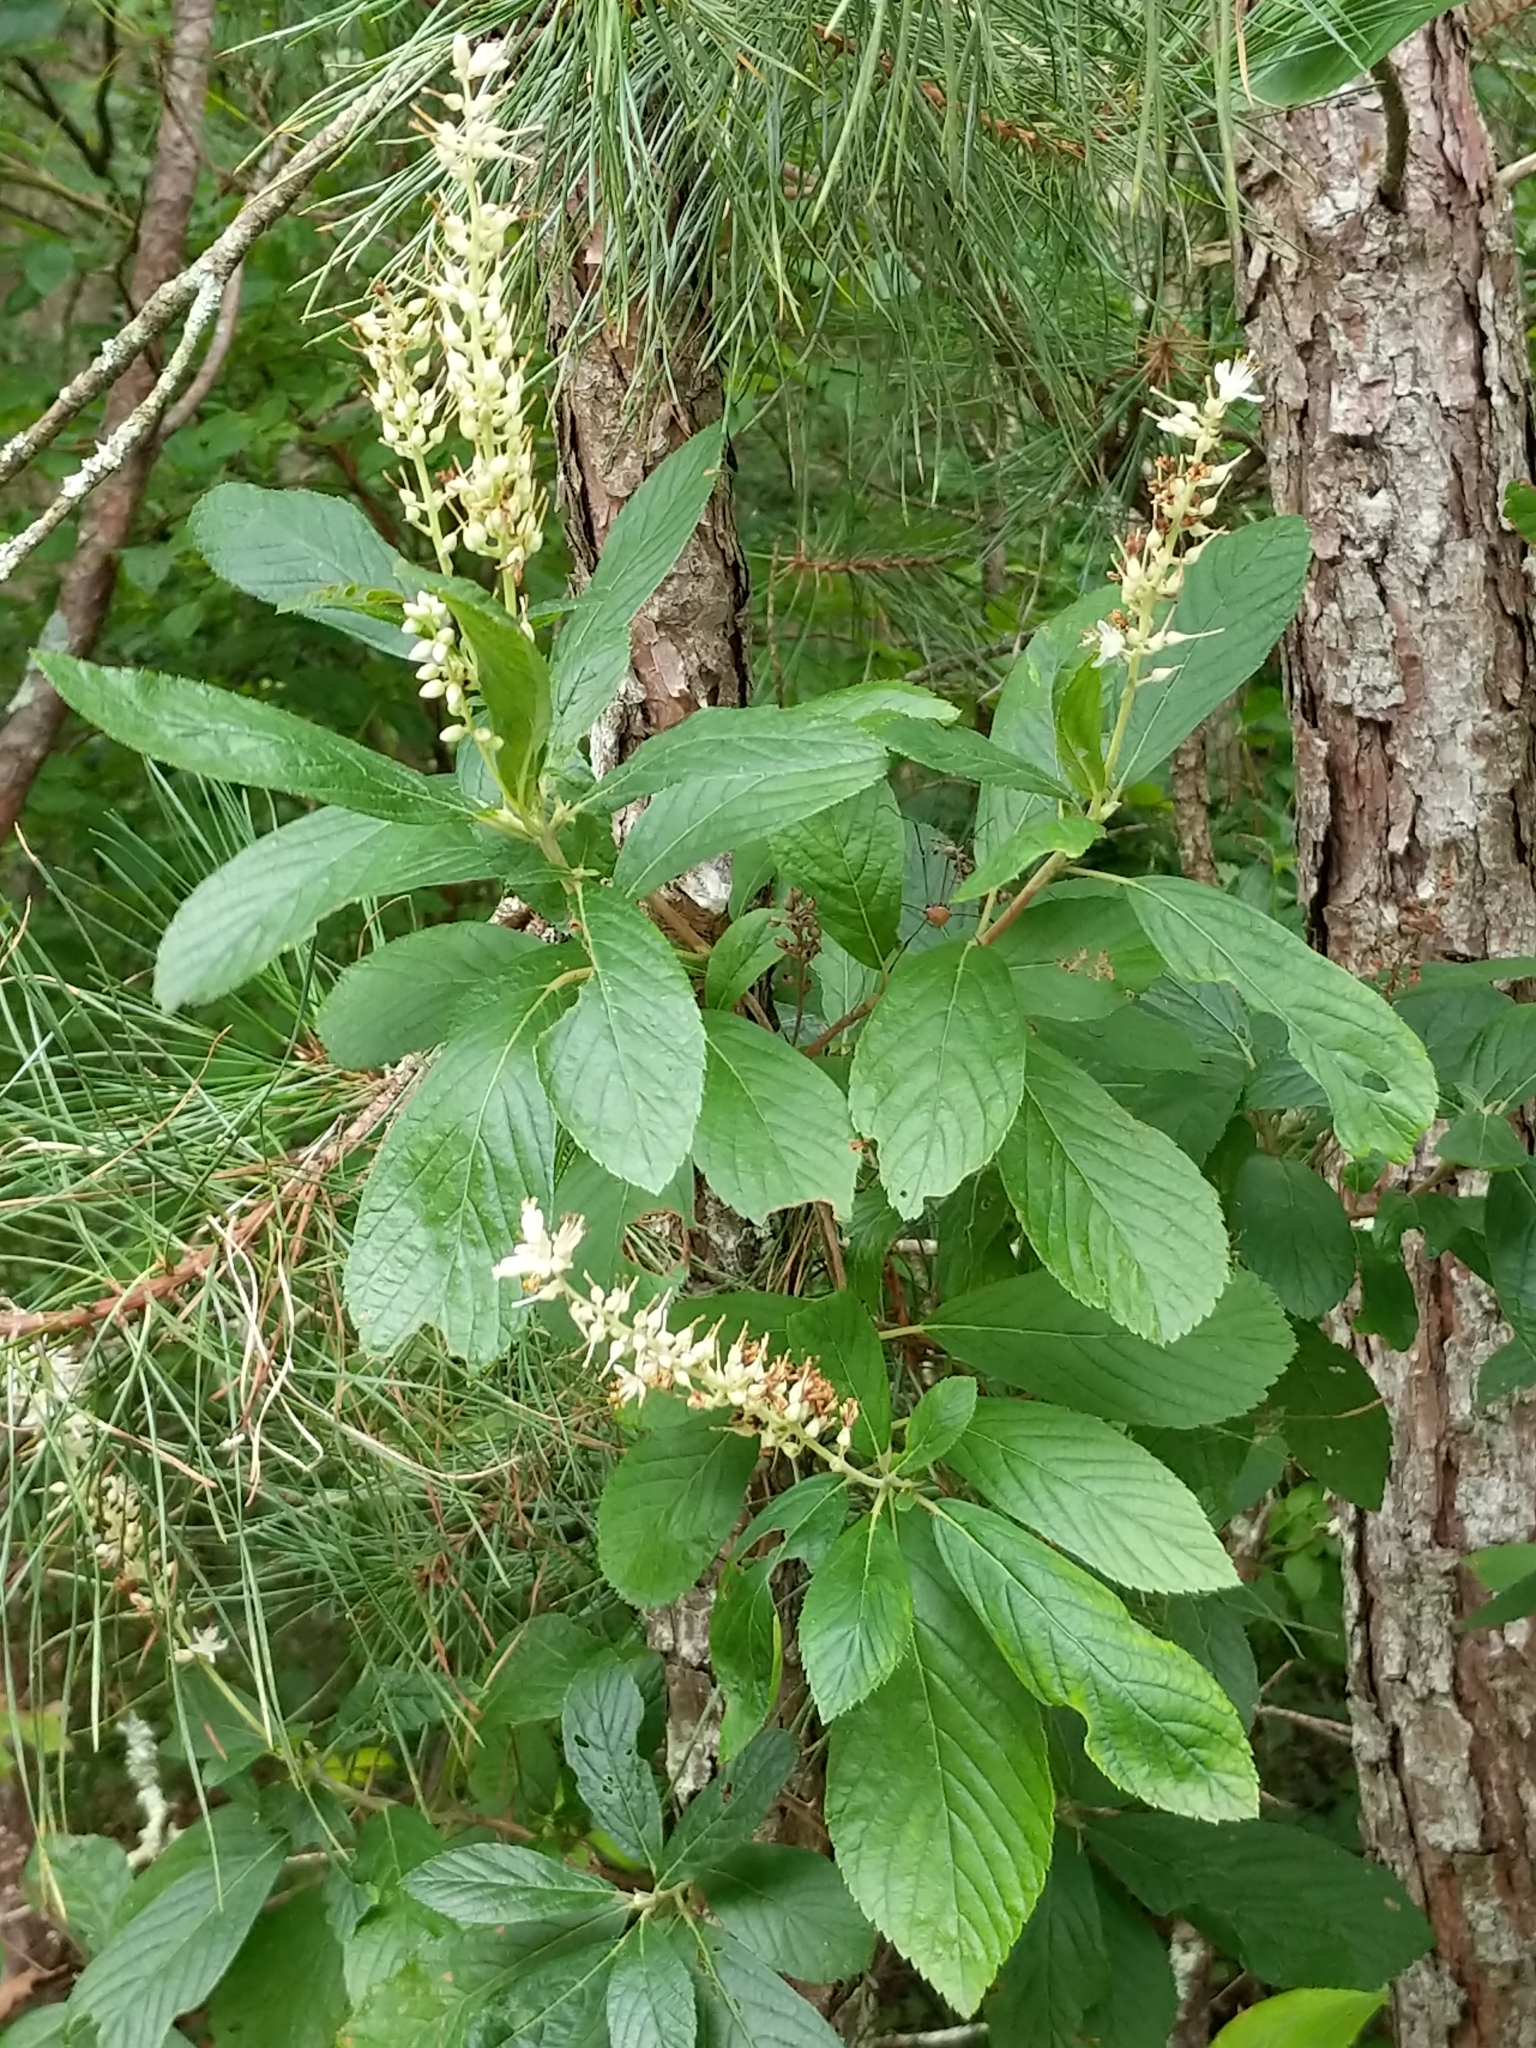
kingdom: Plantae
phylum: Tracheophyta
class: Magnoliopsida
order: Ericales
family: Clethraceae
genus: Clethra
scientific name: Clethra alnifolia
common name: Sweet pepperbush
